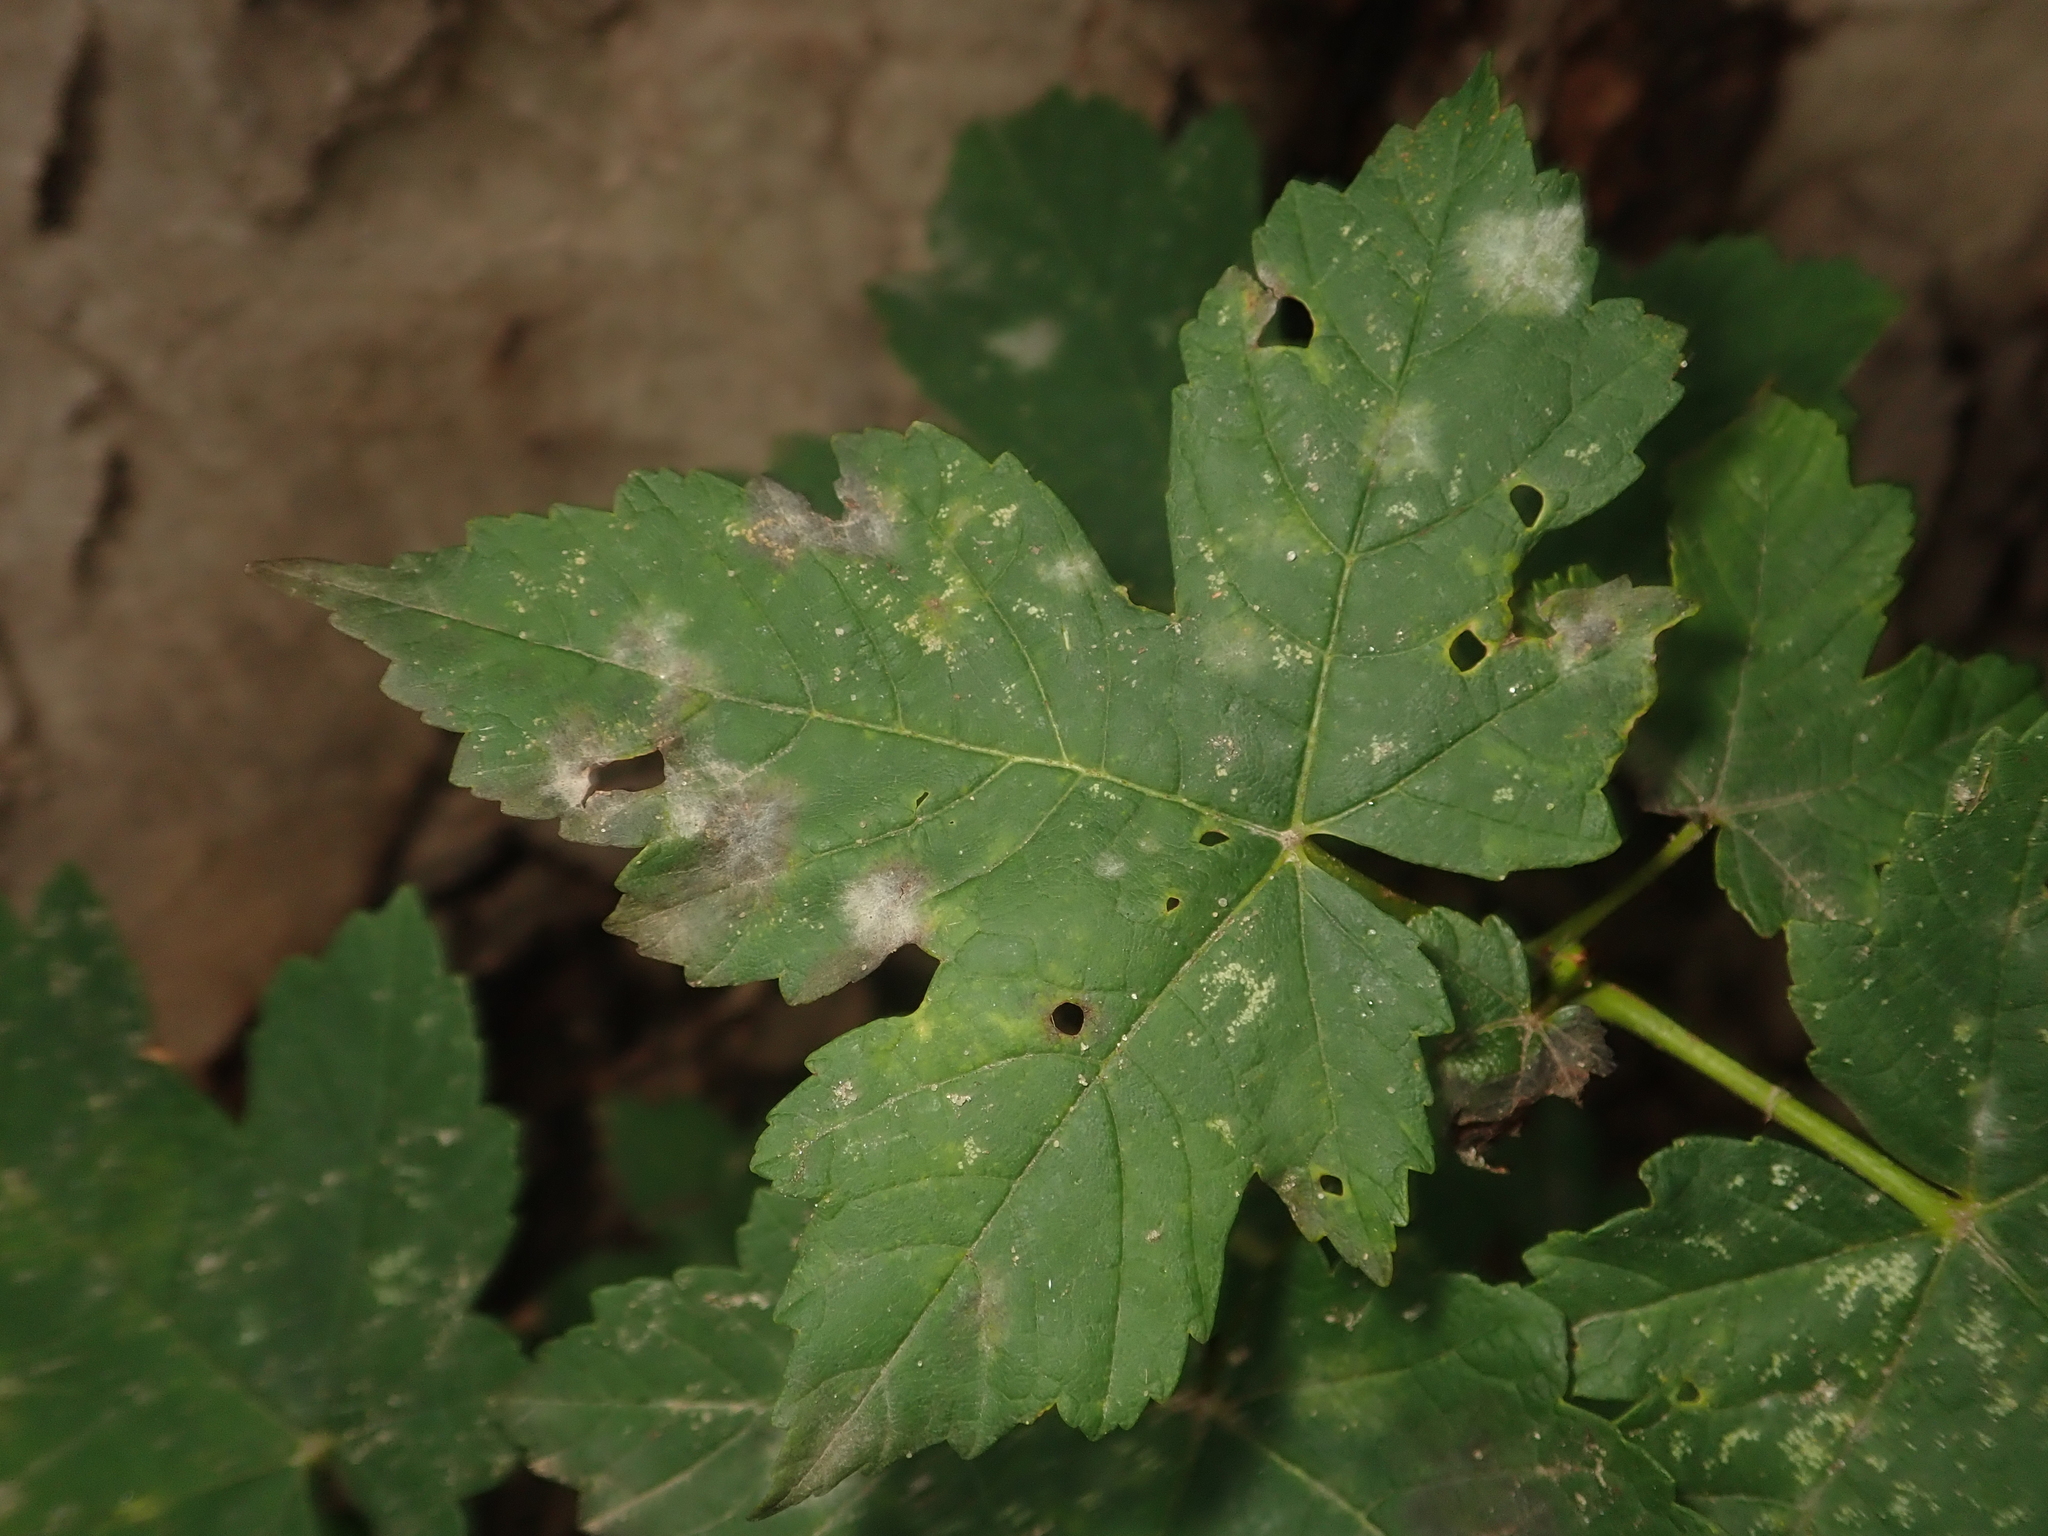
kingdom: Plantae
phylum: Tracheophyta
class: Magnoliopsida
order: Sapindales
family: Sapindaceae
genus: Acer
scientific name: Acer pseudoplatanus
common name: Sycamore
